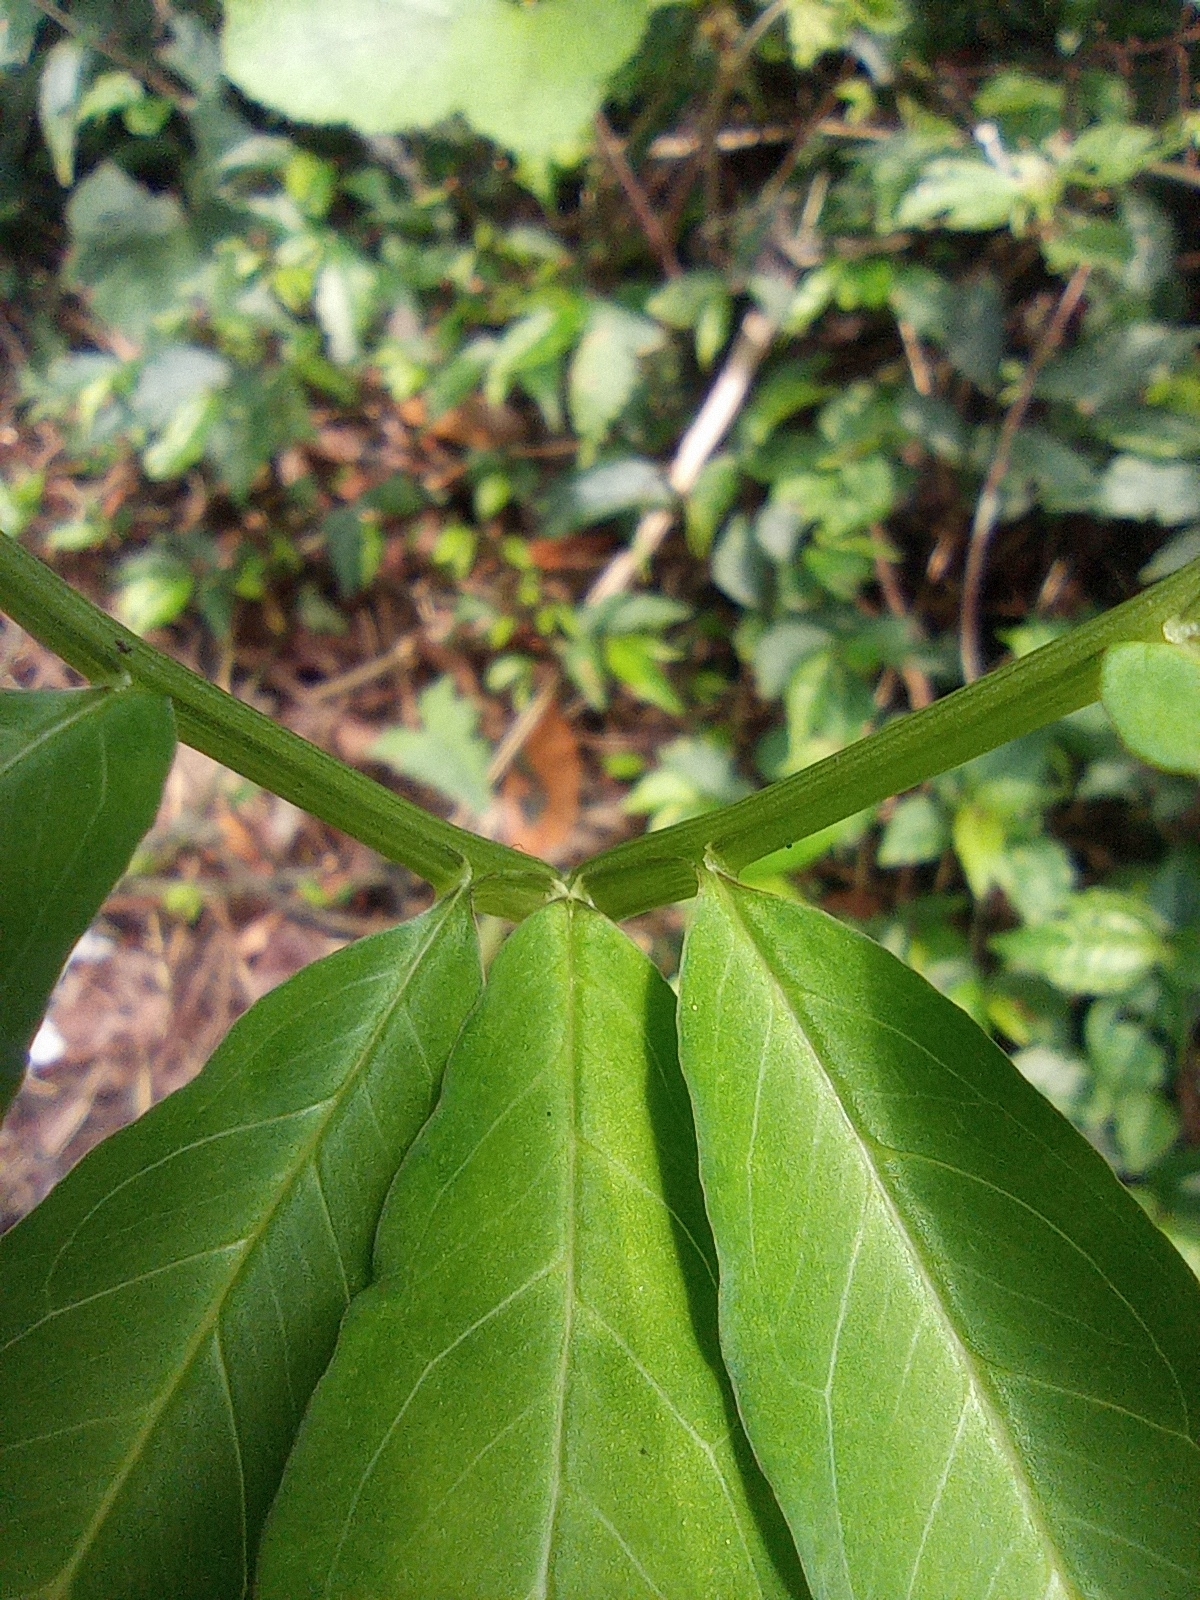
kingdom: Plantae
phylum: Tracheophyta
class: Liliopsida
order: Alismatales
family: Araceae
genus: Arisaema
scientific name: Arisaema heterophyllum
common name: Dancing crane cobra lily
